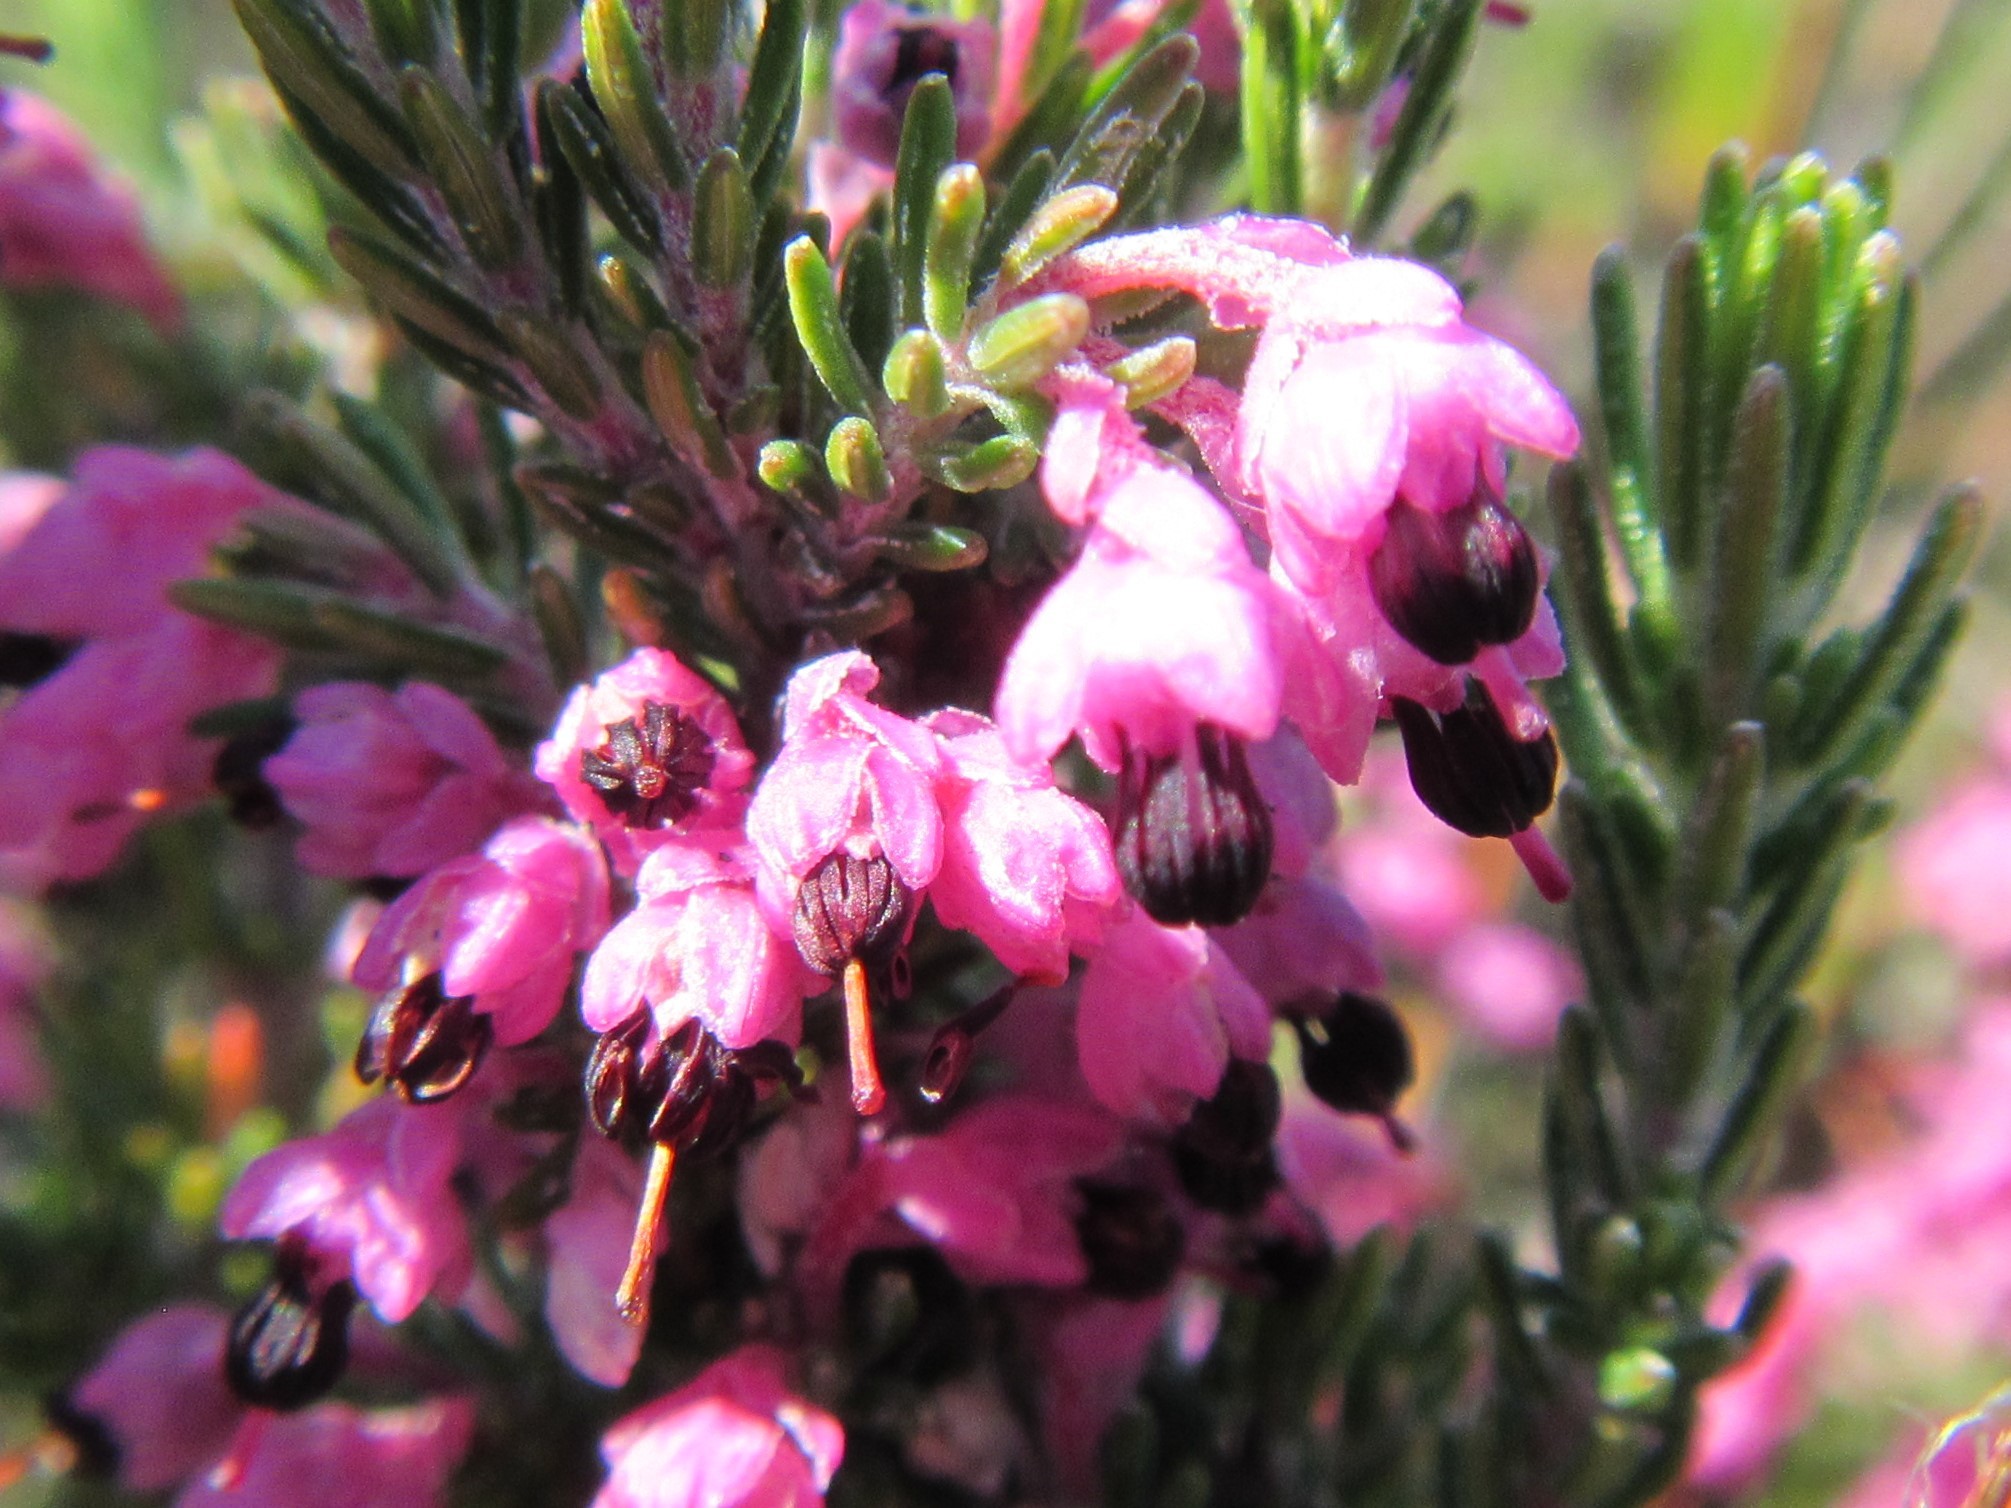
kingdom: Plantae
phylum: Tracheophyta
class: Magnoliopsida
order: Ericales
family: Ericaceae
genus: Erica
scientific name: Erica placentiflora
